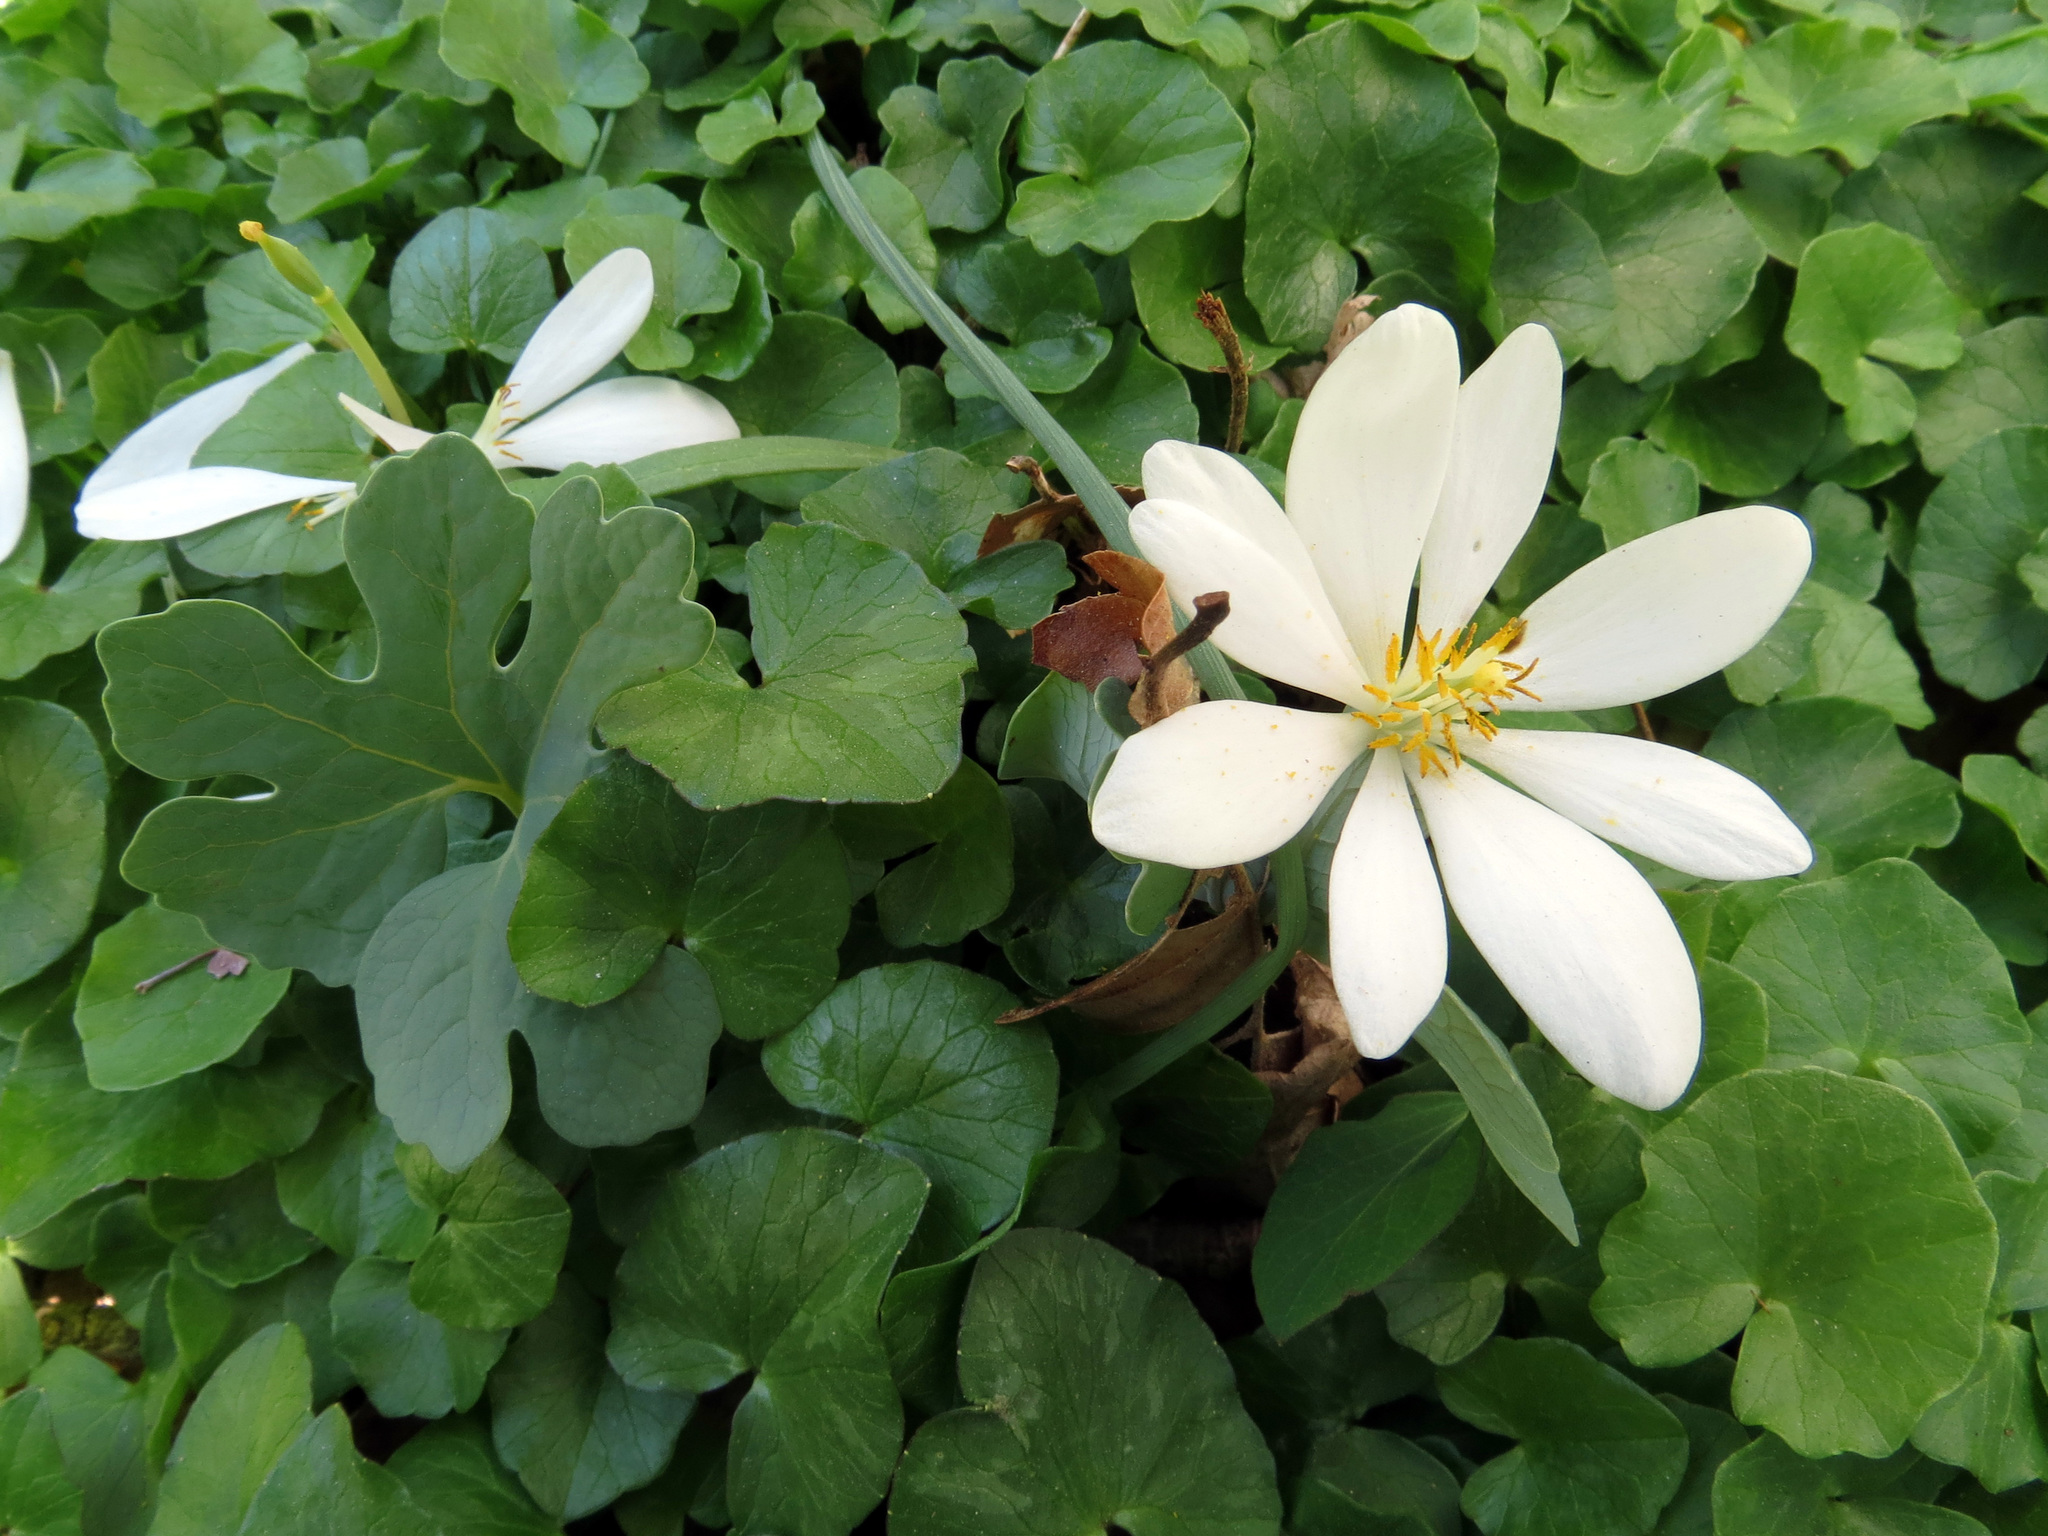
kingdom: Plantae
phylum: Tracheophyta
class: Magnoliopsida
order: Ranunculales
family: Papaveraceae
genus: Sanguinaria
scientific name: Sanguinaria canadensis
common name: Bloodroot
